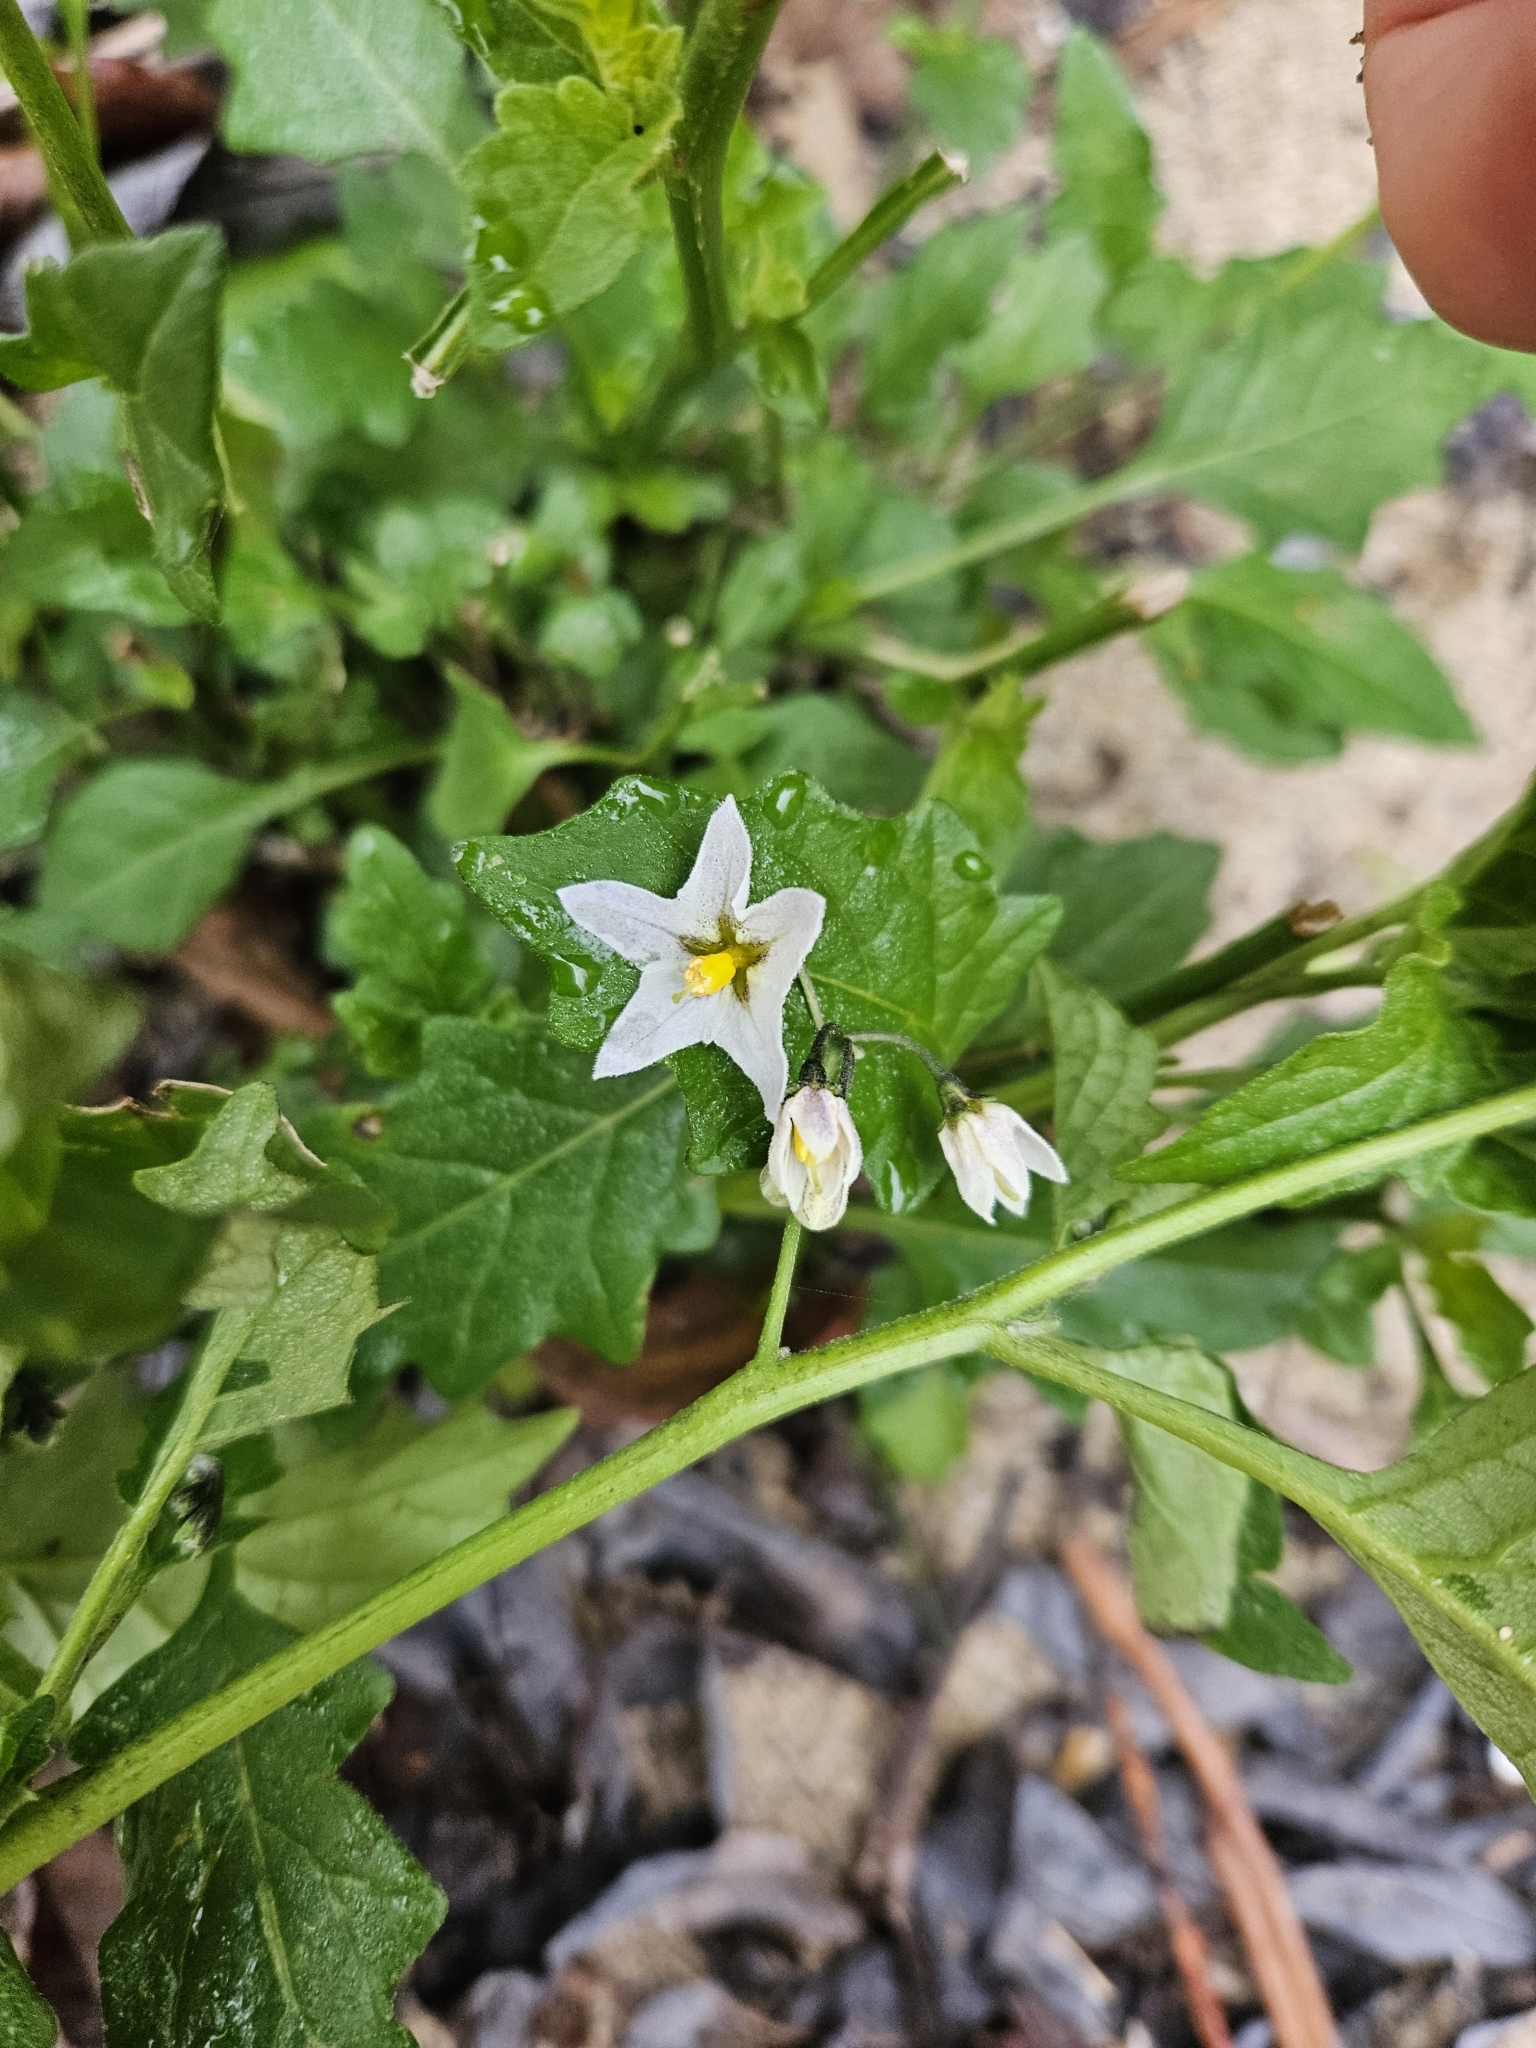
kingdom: Plantae
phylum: Tracheophyta
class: Magnoliopsida
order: Solanales
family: Solanaceae
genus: Solanum
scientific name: Solanum furcatum
